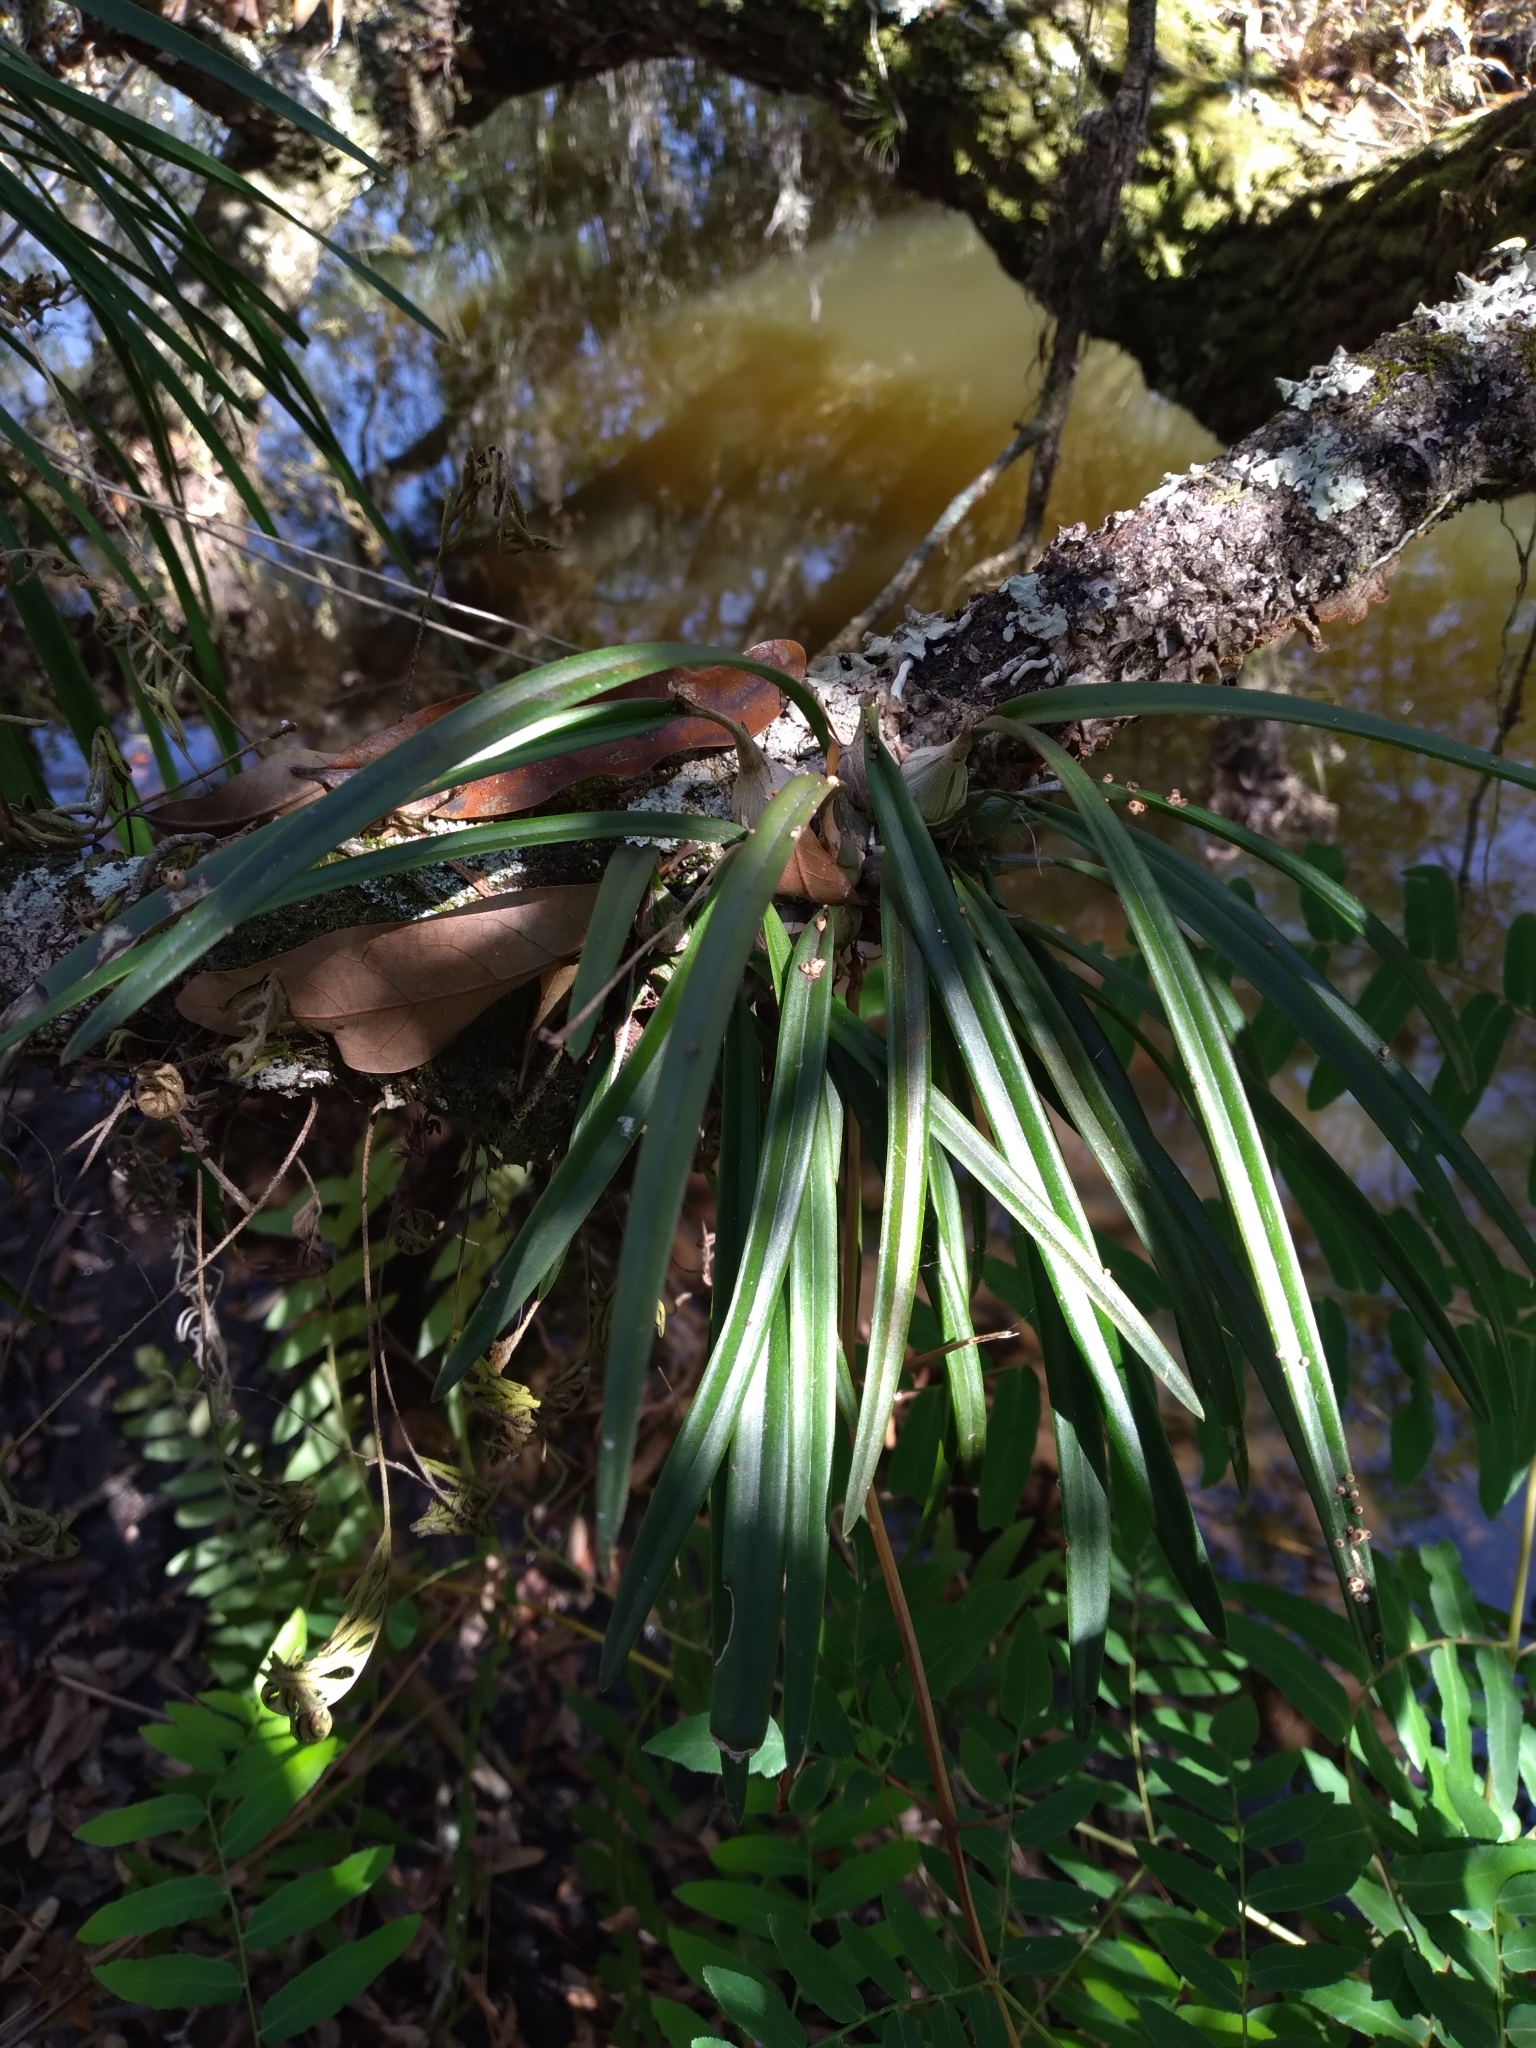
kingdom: Plantae
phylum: Tracheophyta
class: Liliopsida
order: Asparagales
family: Orchidaceae
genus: Encyclia
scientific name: Encyclia tampensis
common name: Florida butterfly orchid
